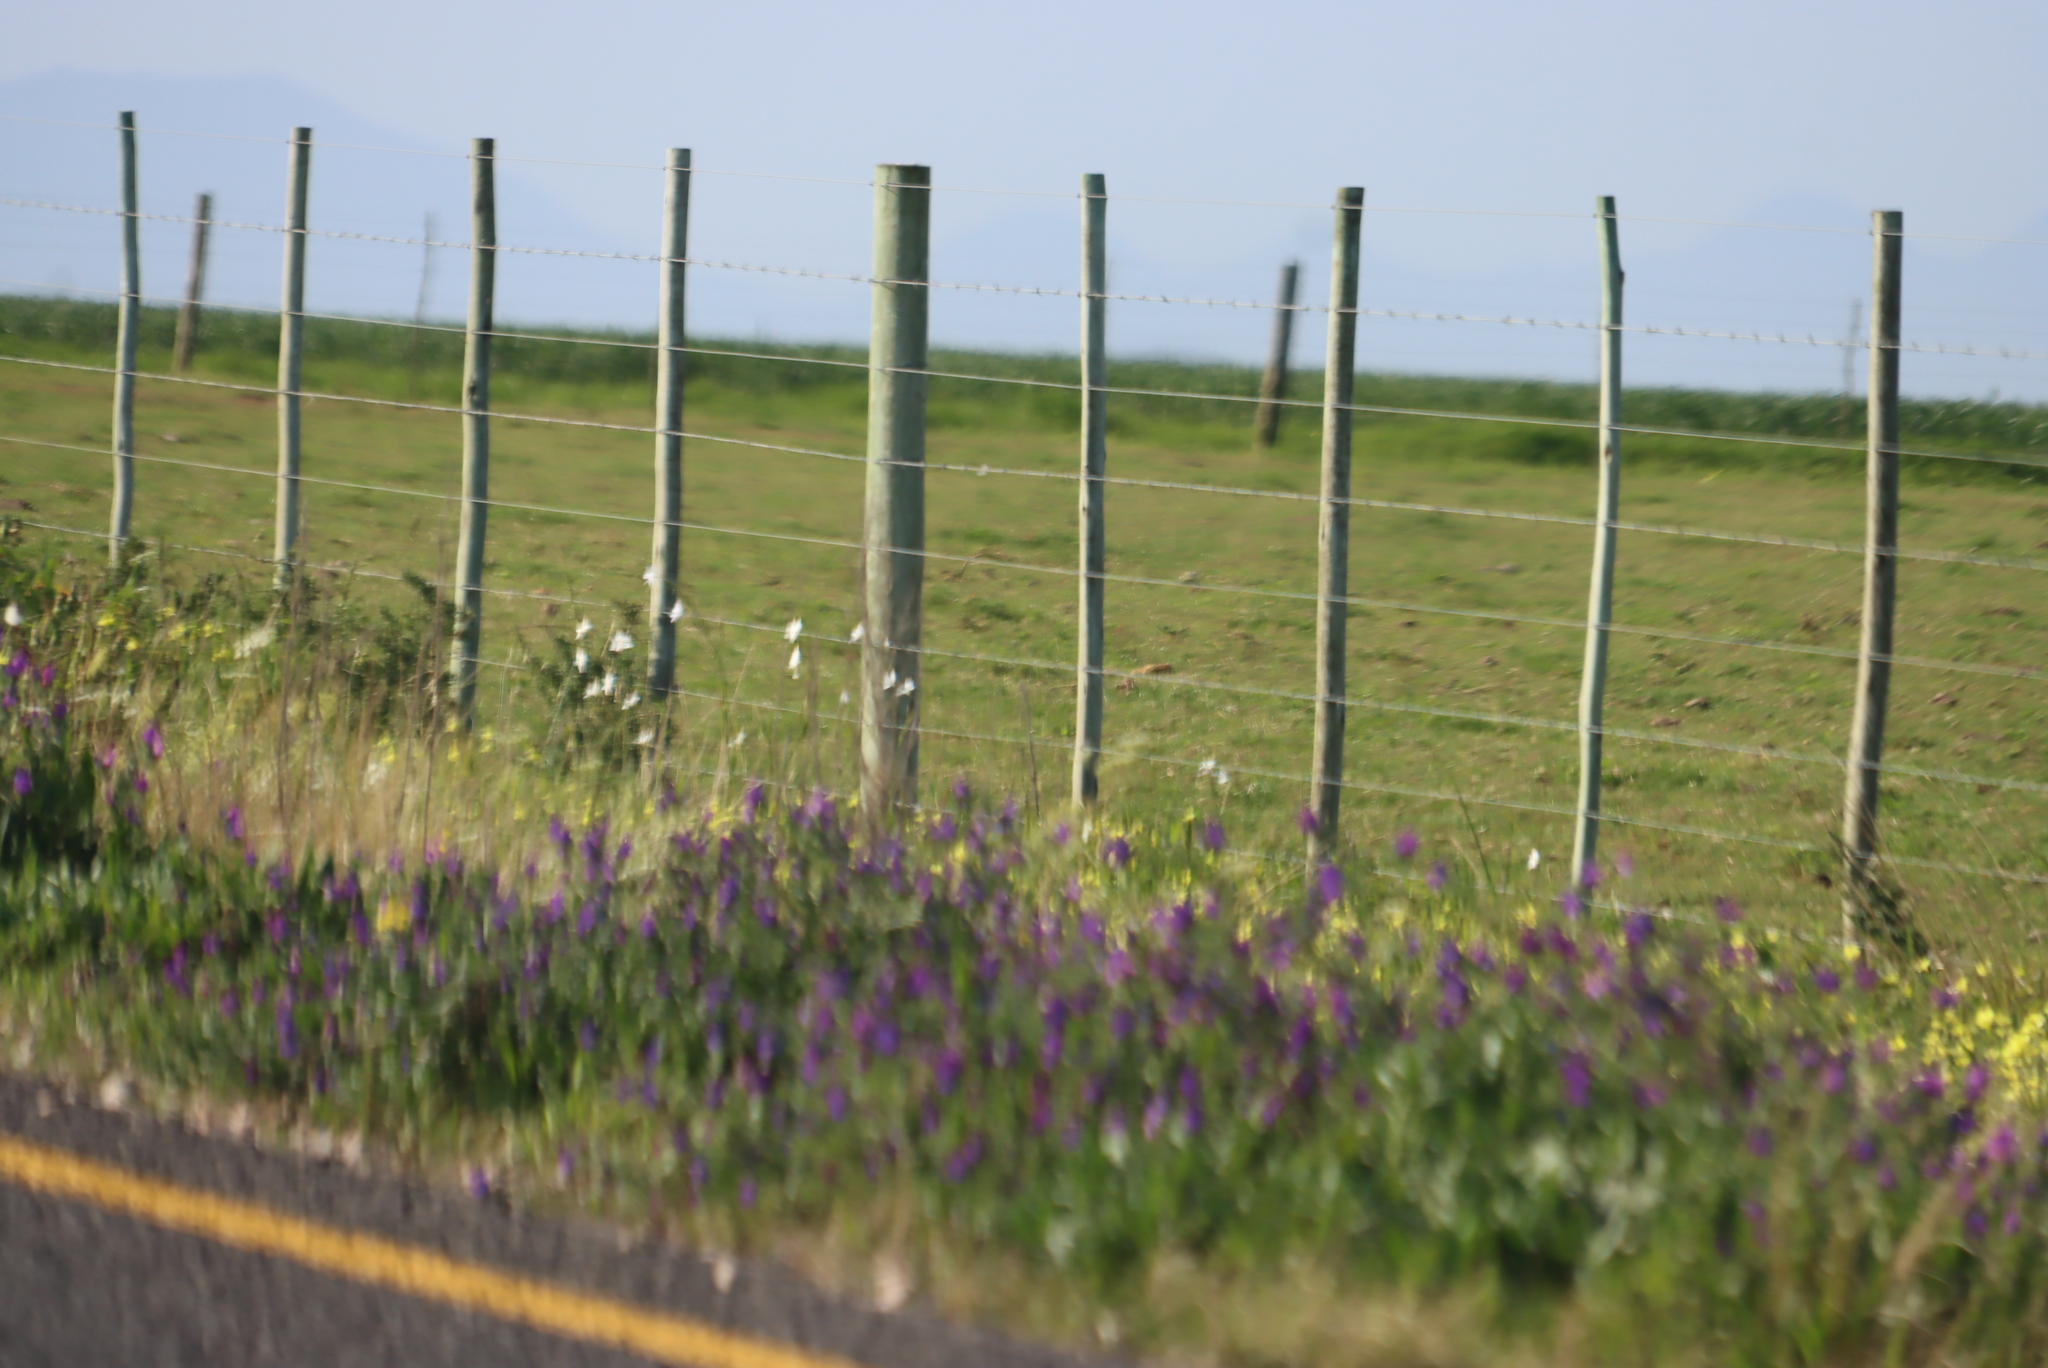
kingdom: Plantae
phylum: Tracheophyta
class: Magnoliopsida
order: Boraginales
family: Boraginaceae
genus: Echium
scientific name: Echium plantagineum
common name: Purple viper's-bugloss
